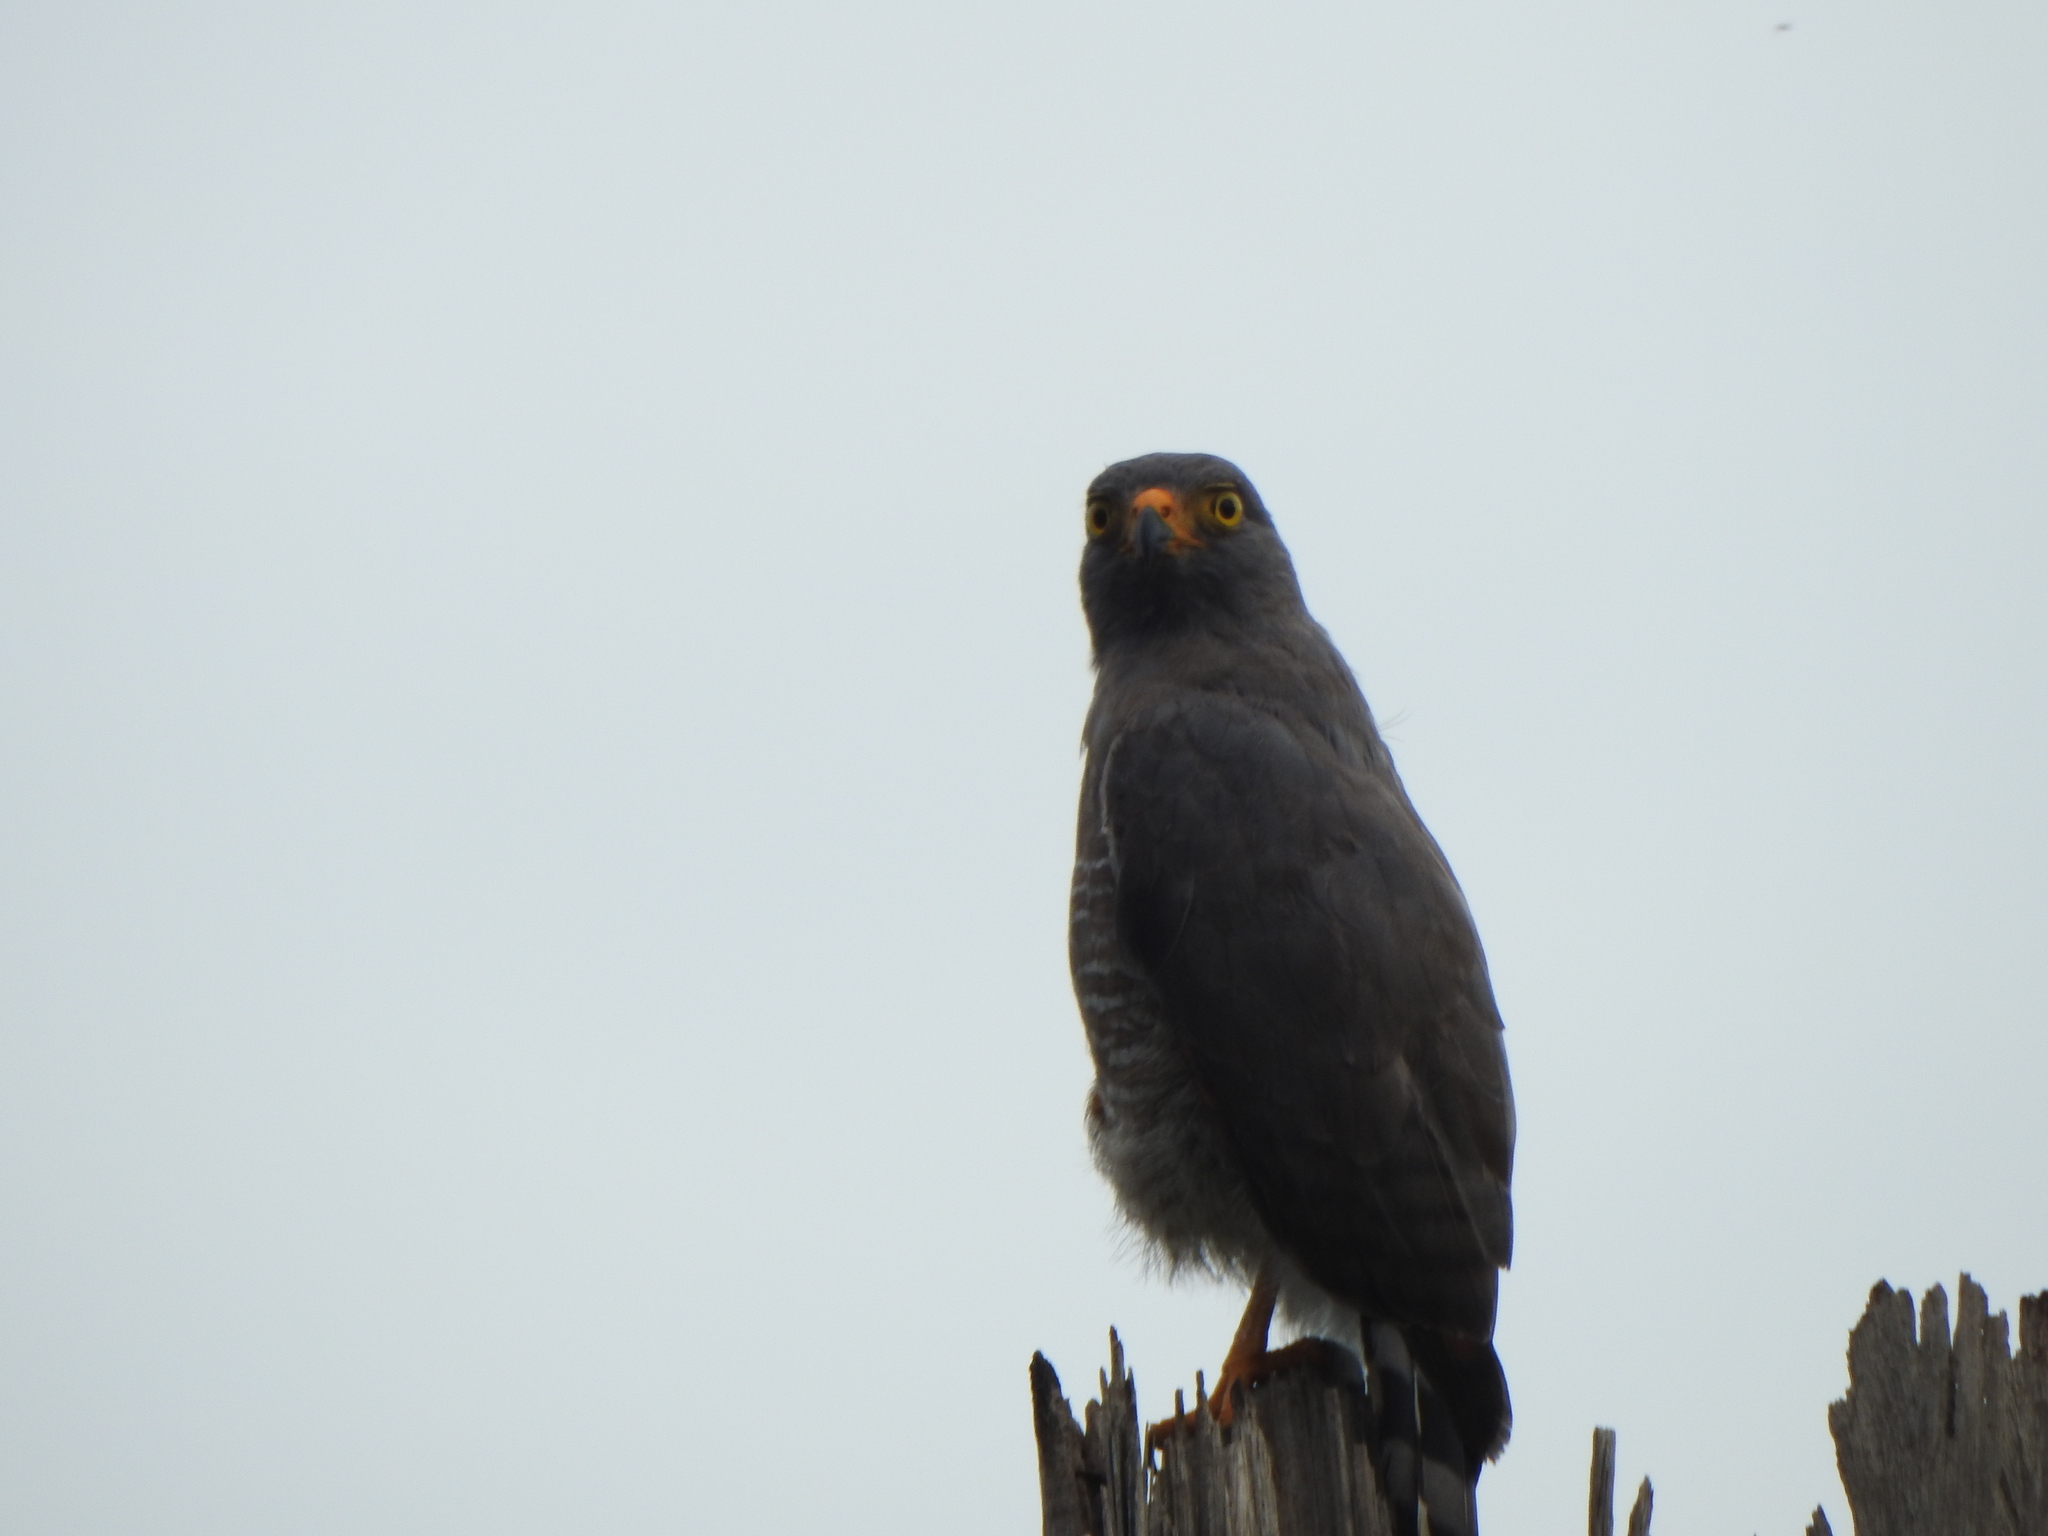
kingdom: Animalia
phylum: Chordata
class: Aves
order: Accipitriformes
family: Accipitridae
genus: Rupornis
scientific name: Rupornis magnirostris
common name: Roadside hawk
